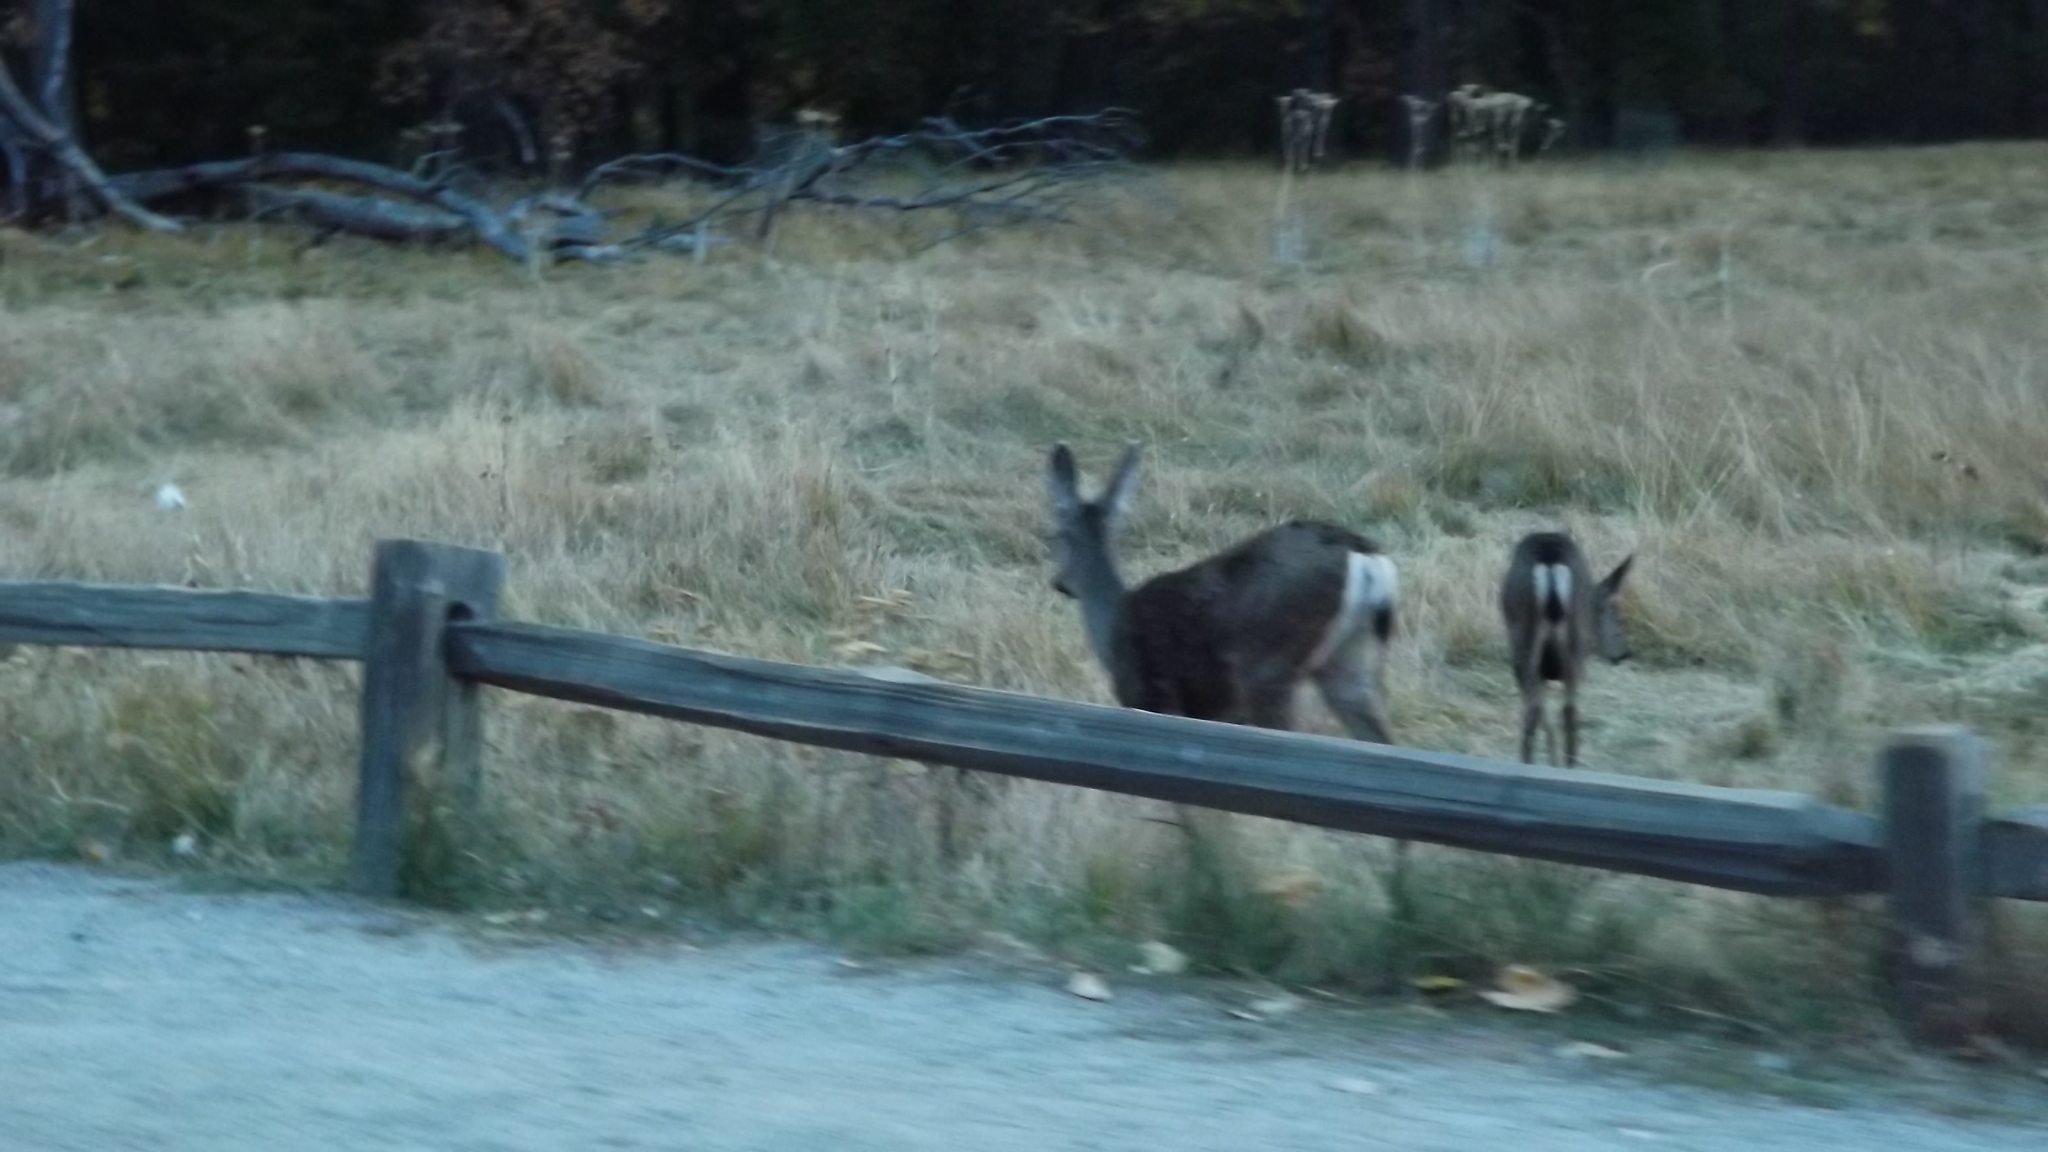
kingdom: Animalia
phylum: Chordata
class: Mammalia
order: Artiodactyla
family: Cervidae
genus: Odocoileus
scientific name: Odocoileus hemionus
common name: Mule deer
